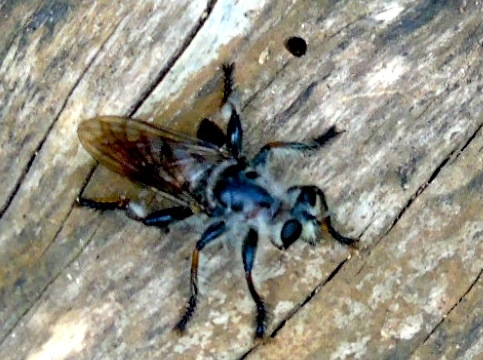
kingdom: Animalia
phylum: Arthropoda
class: Insecta
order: Diptera
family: Asilidae
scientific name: Asilidae
